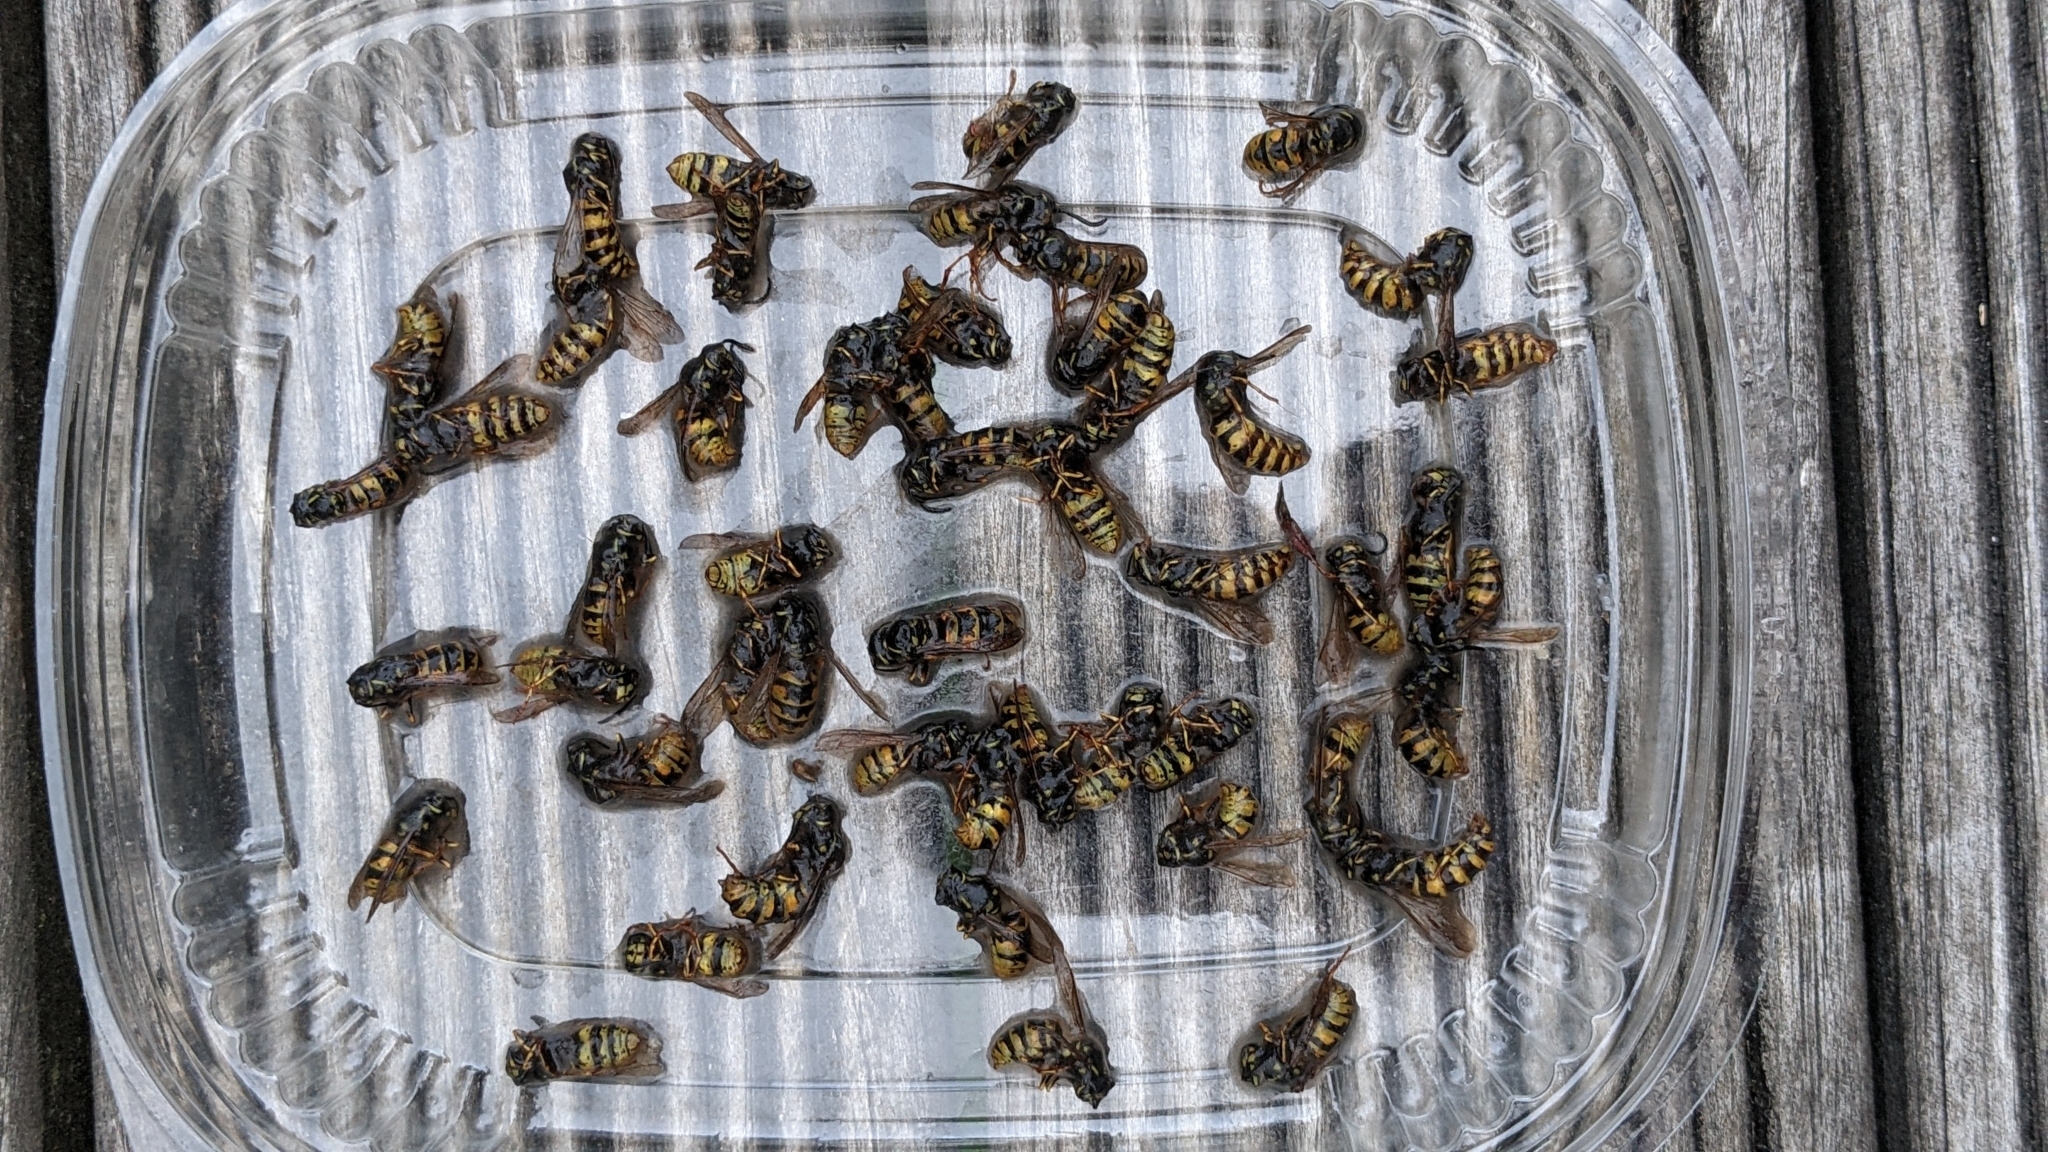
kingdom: Animalia
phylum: Arthropoda
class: Insecta
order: Hymenoptera
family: Vespidae
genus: Vespula
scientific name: Vespula vulgaris
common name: Common wasp
